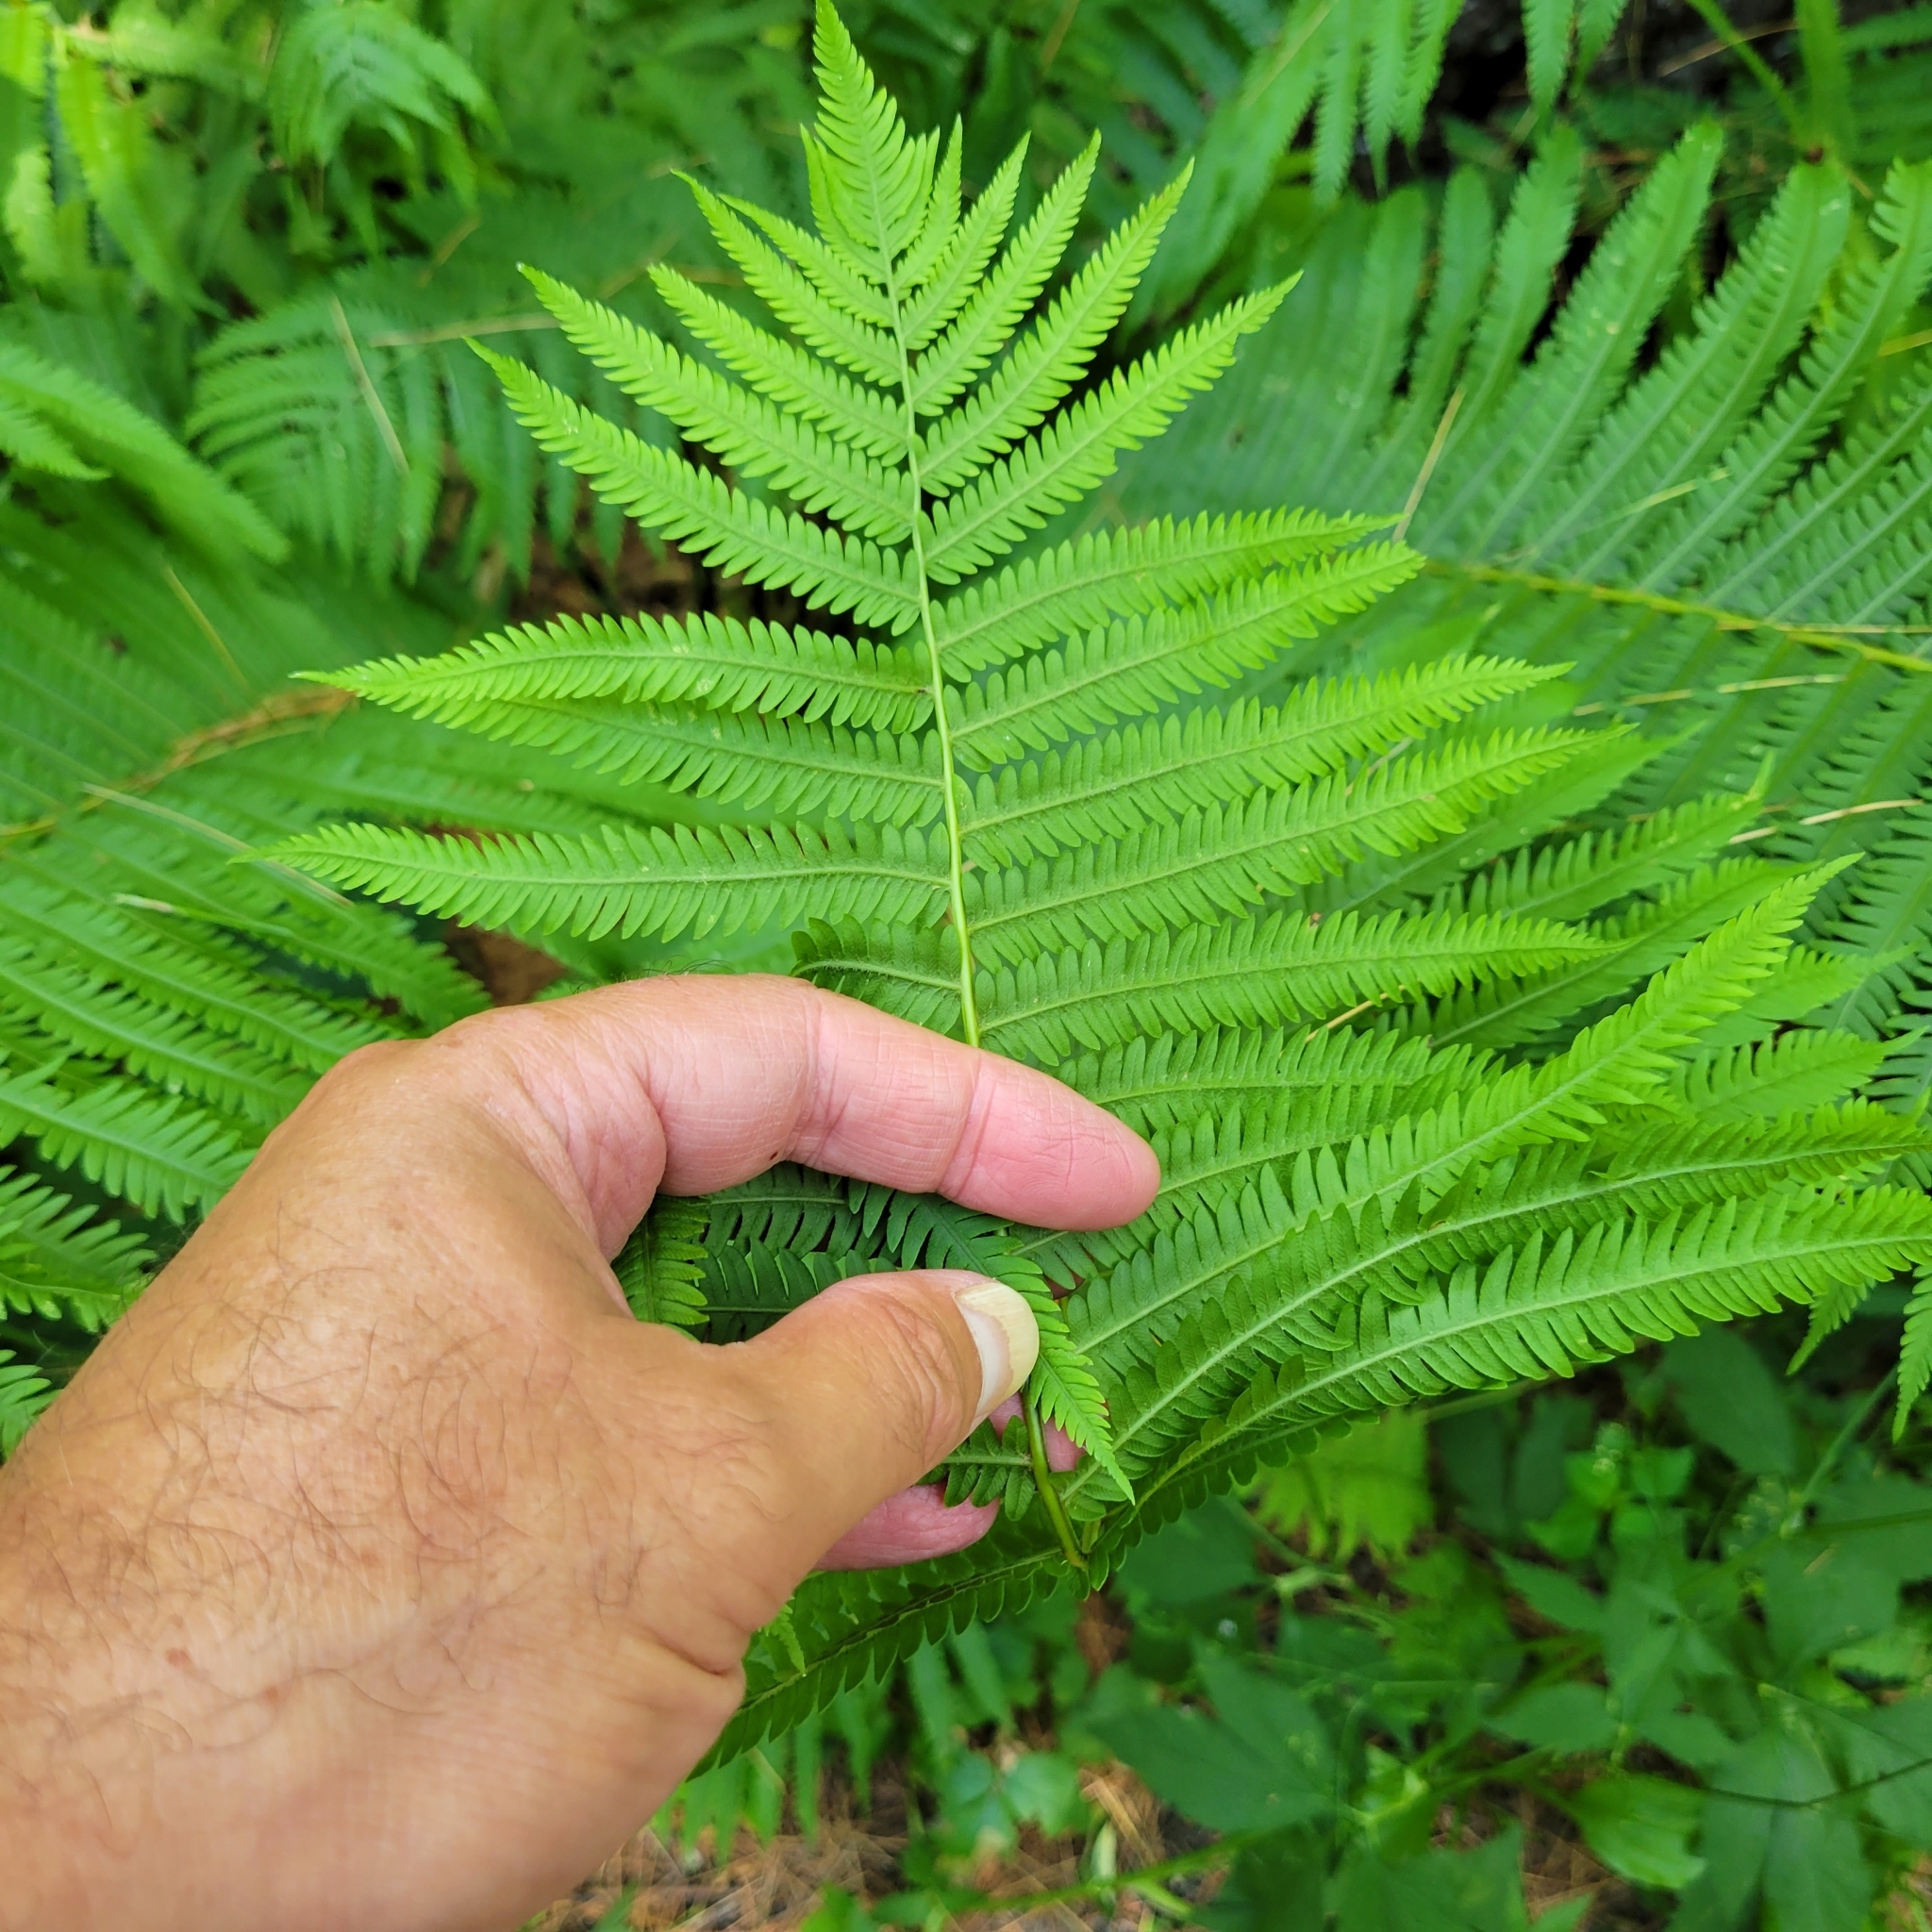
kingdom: Plantae
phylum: Tracheophyta
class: Polypodiopsida
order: Polypodiales
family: Onocleaceae
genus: Matteuccia
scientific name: Matteuccia struthiopteris
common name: Ostrich fern
